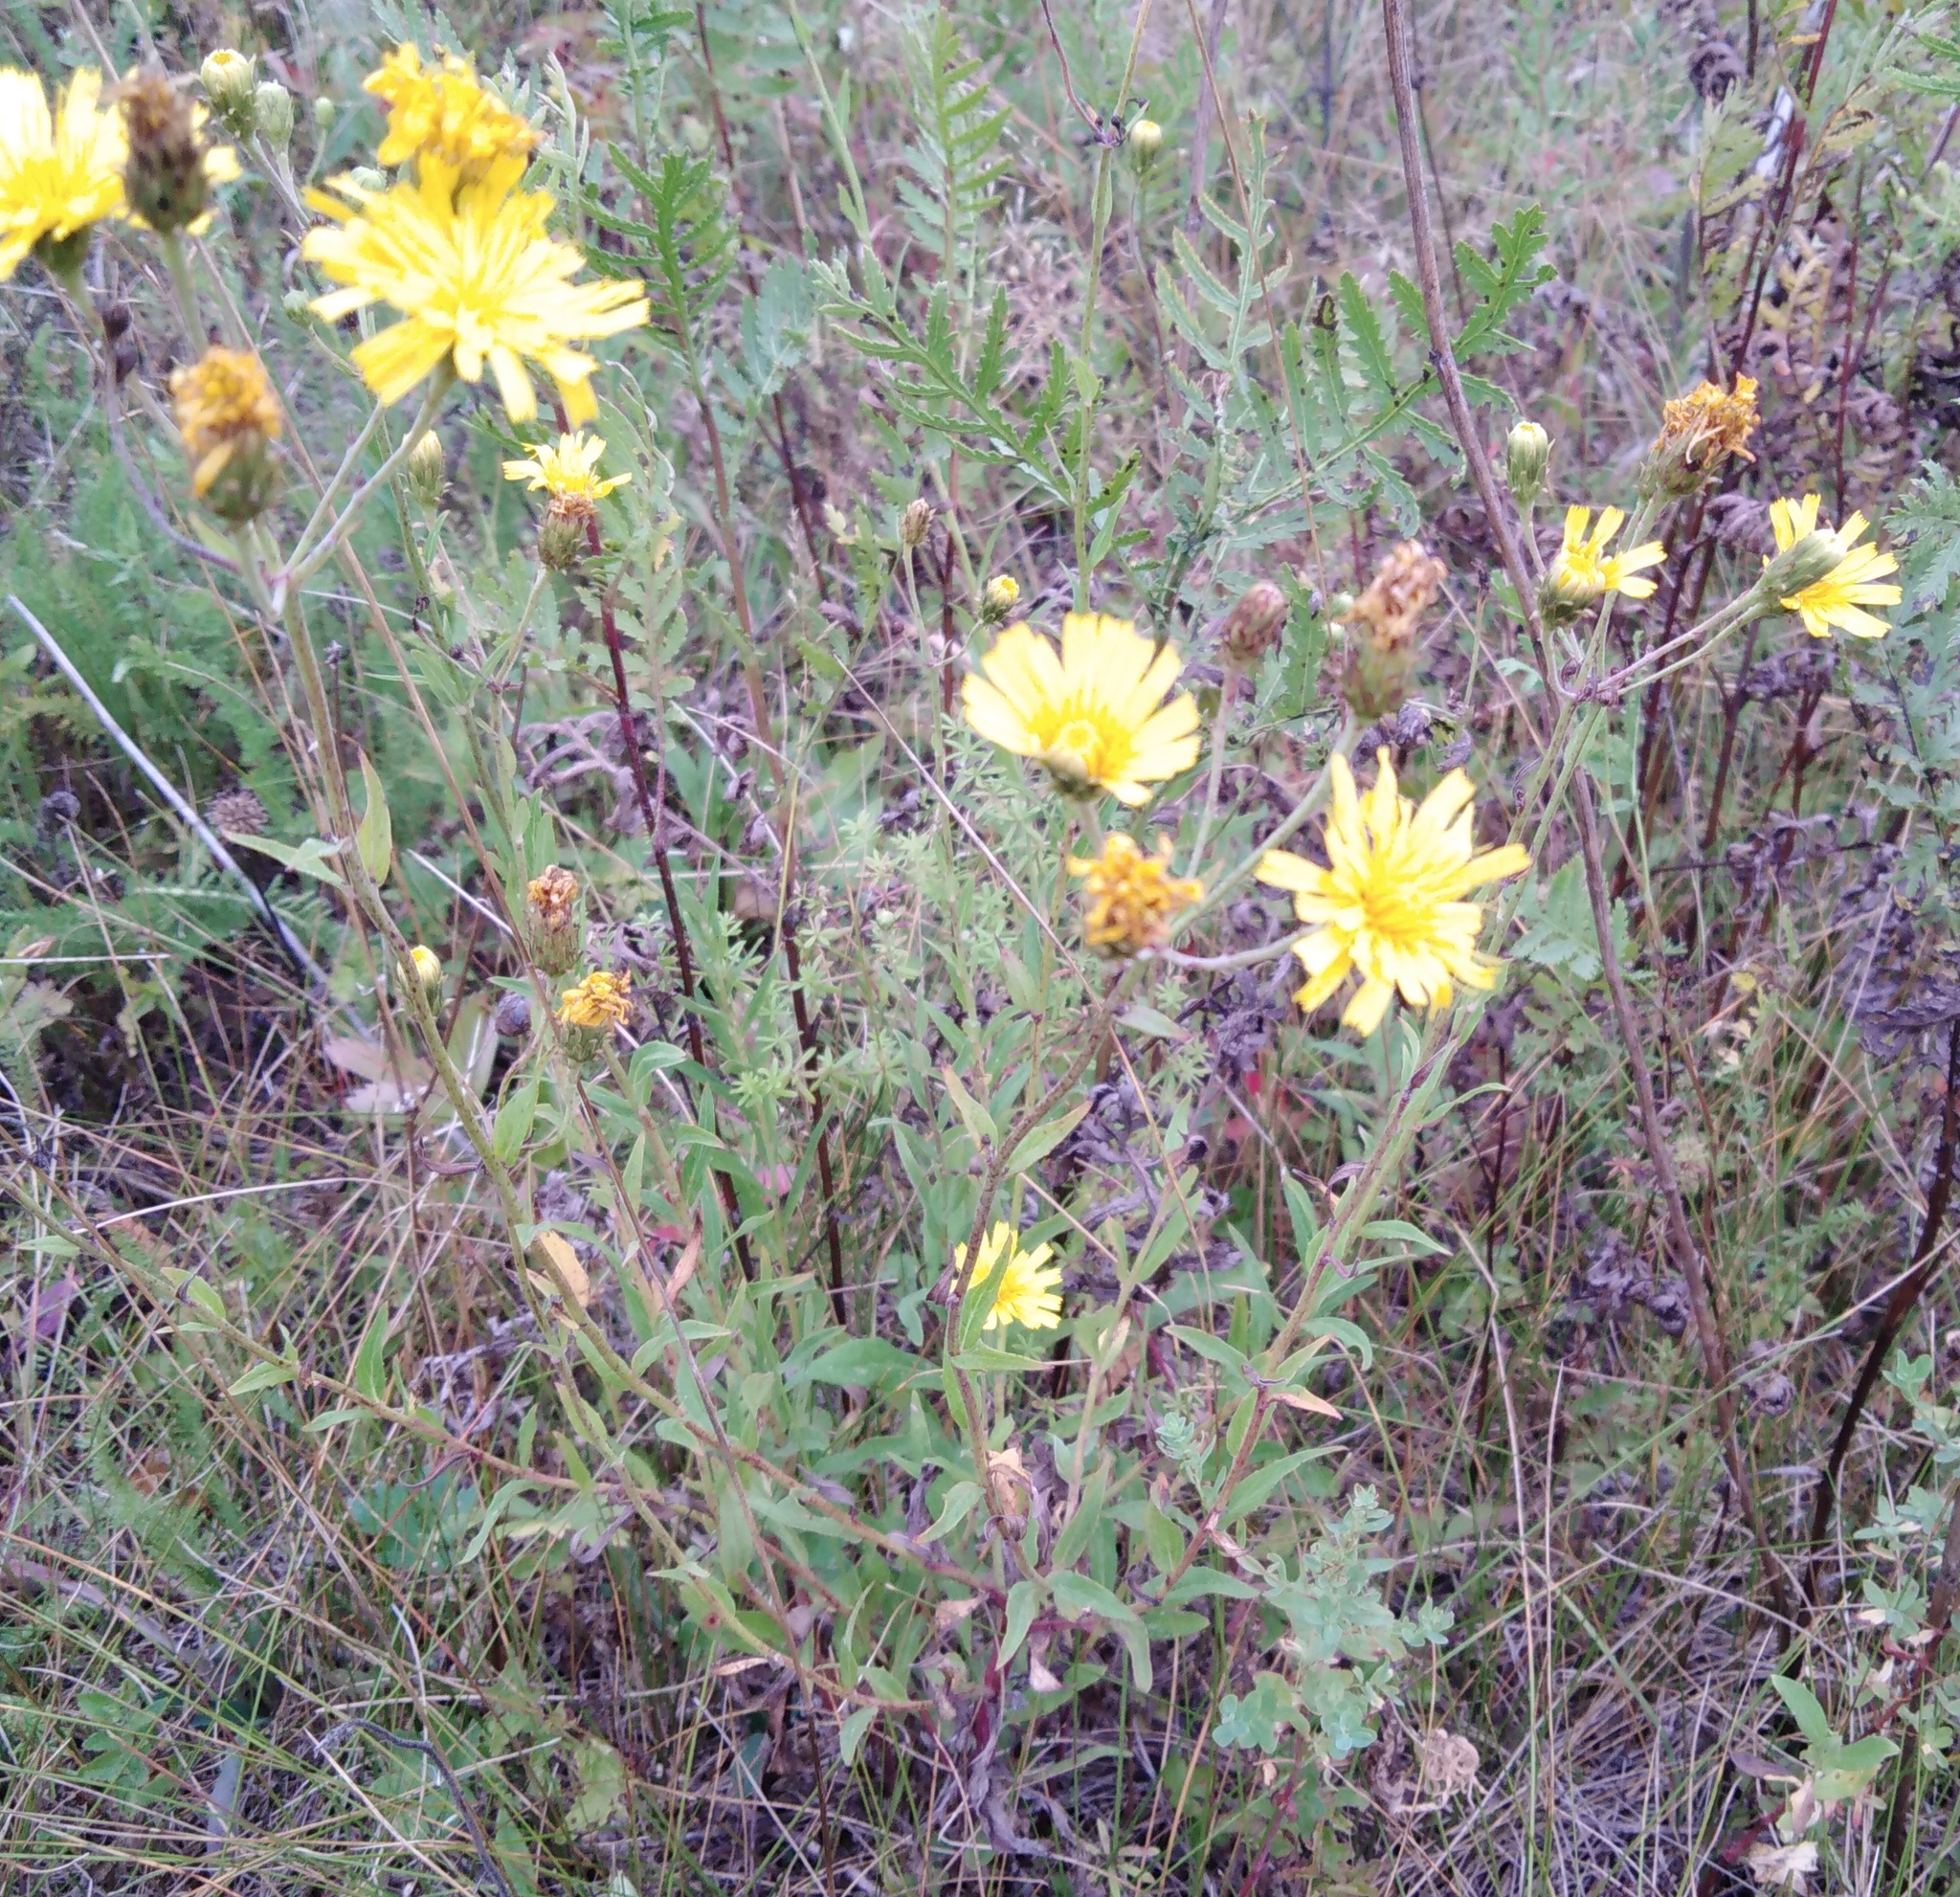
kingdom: Plantae
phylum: Tracheophyta
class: Magnoliopsida
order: Asterales
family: Asteraceae
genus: Hieracium
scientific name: Hieracium umbellatum
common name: Northern hawkweed
